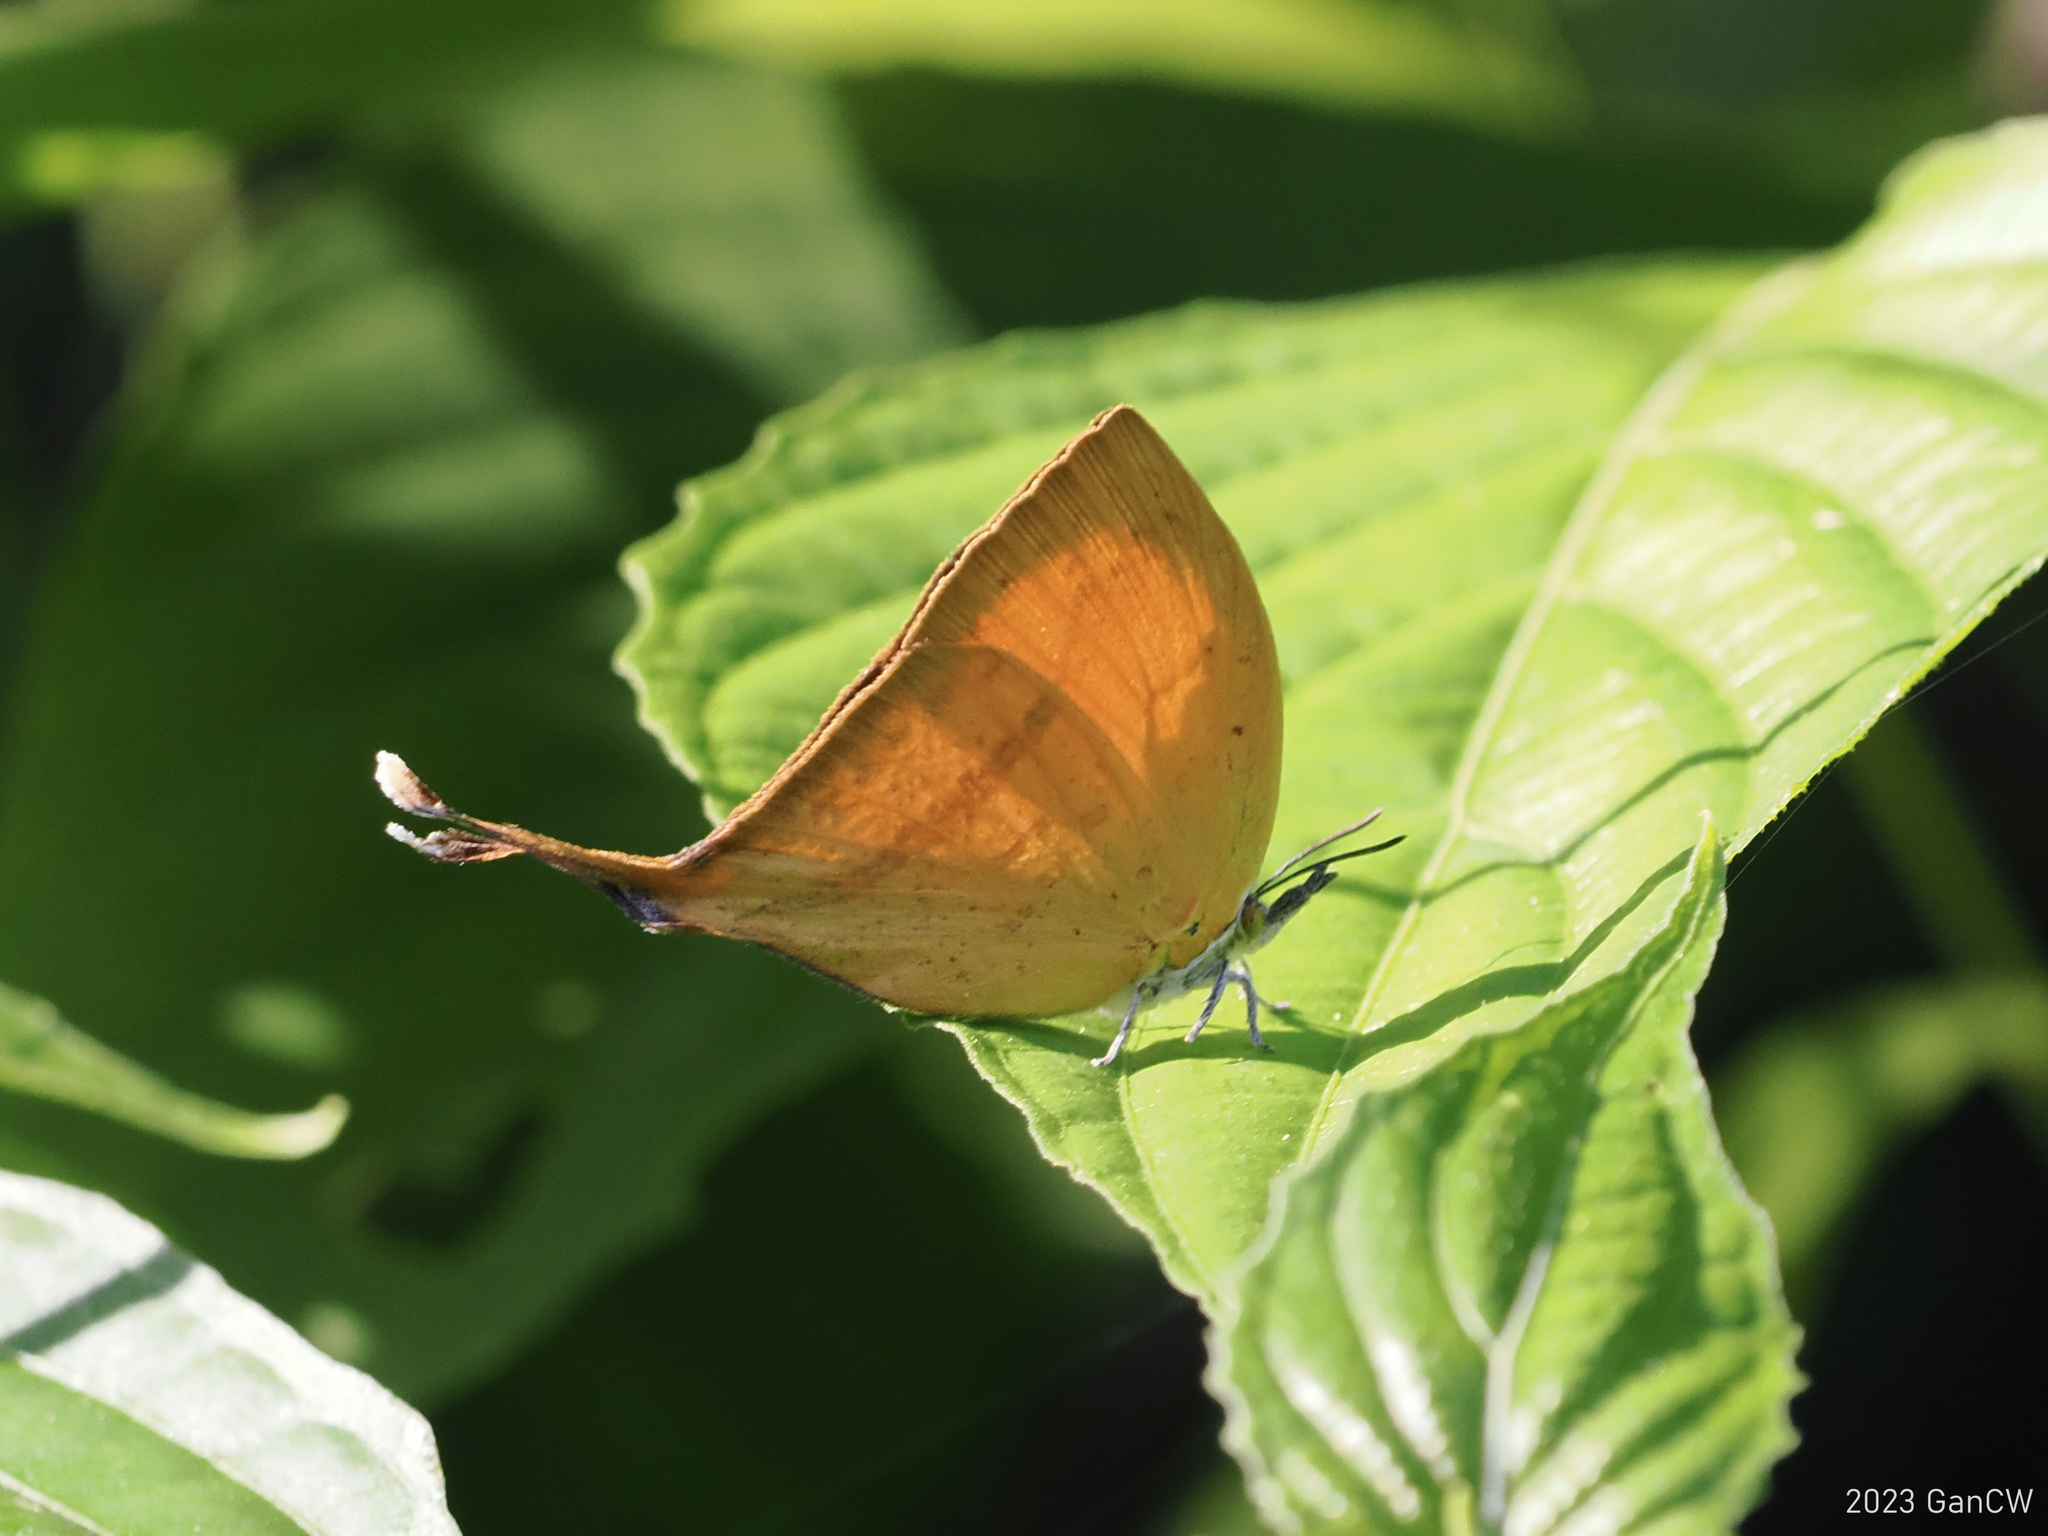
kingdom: Animalia
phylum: Arthropoda
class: Insecta
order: Lepidoptera
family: Lycaenidae
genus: Loxura
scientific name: Loxura atymnus
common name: Common yamfly
